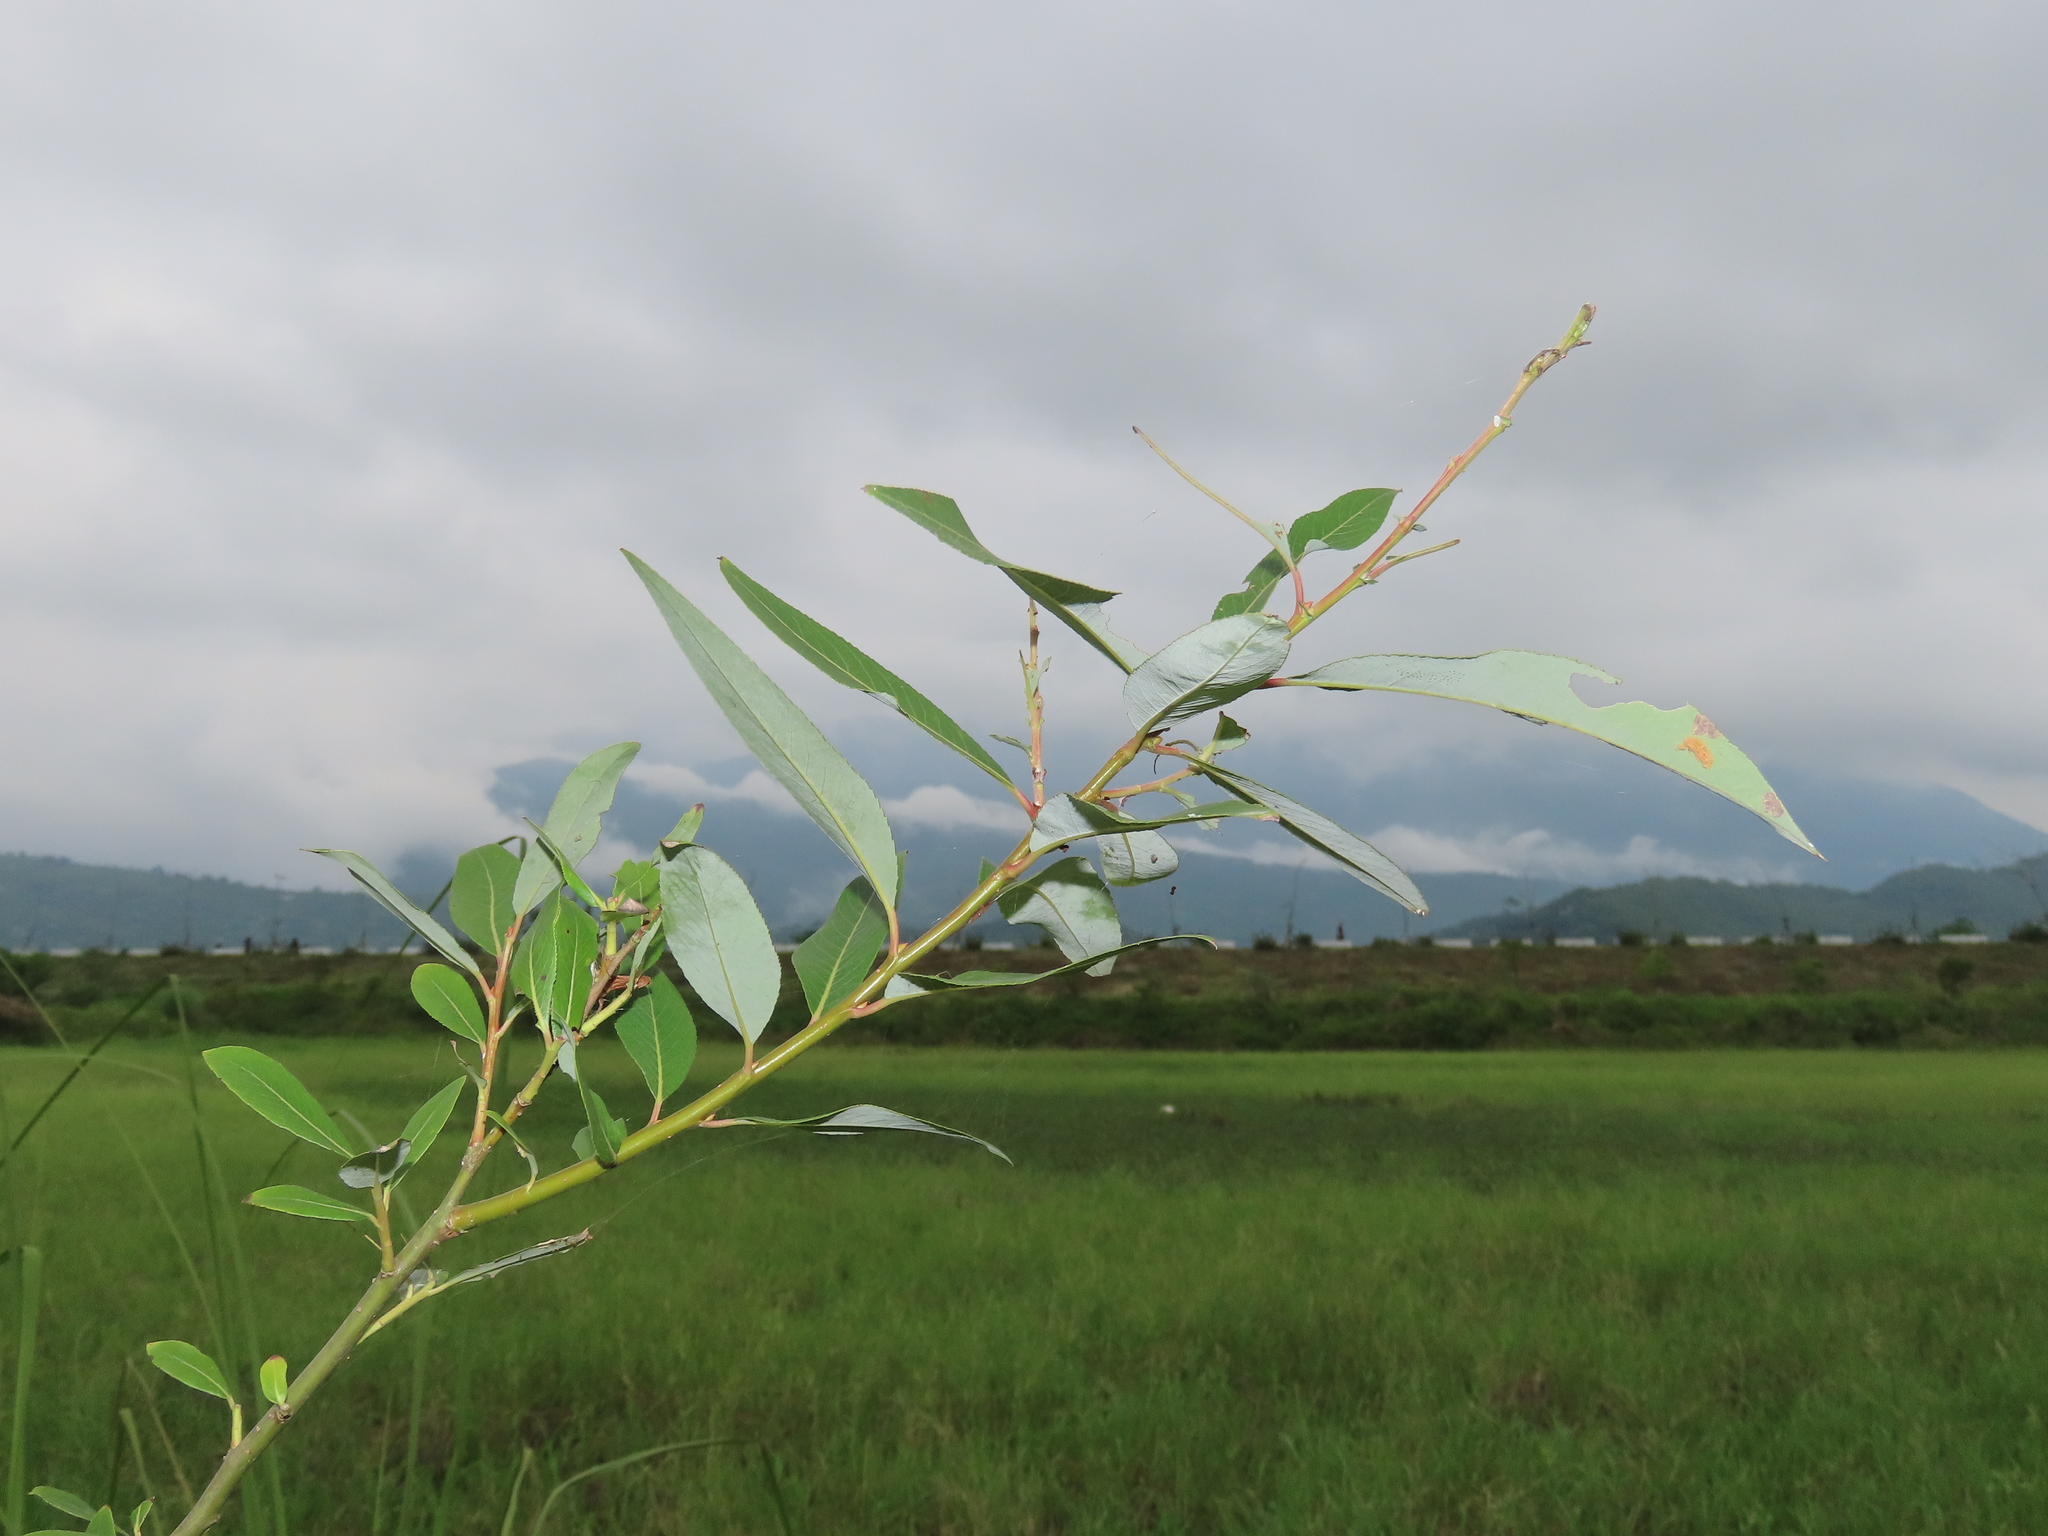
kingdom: Plantae
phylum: Tracheophyta
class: Magnoliopsida
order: Malpighiales
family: Salicaceae
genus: Salix
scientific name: Salix mesnyi
